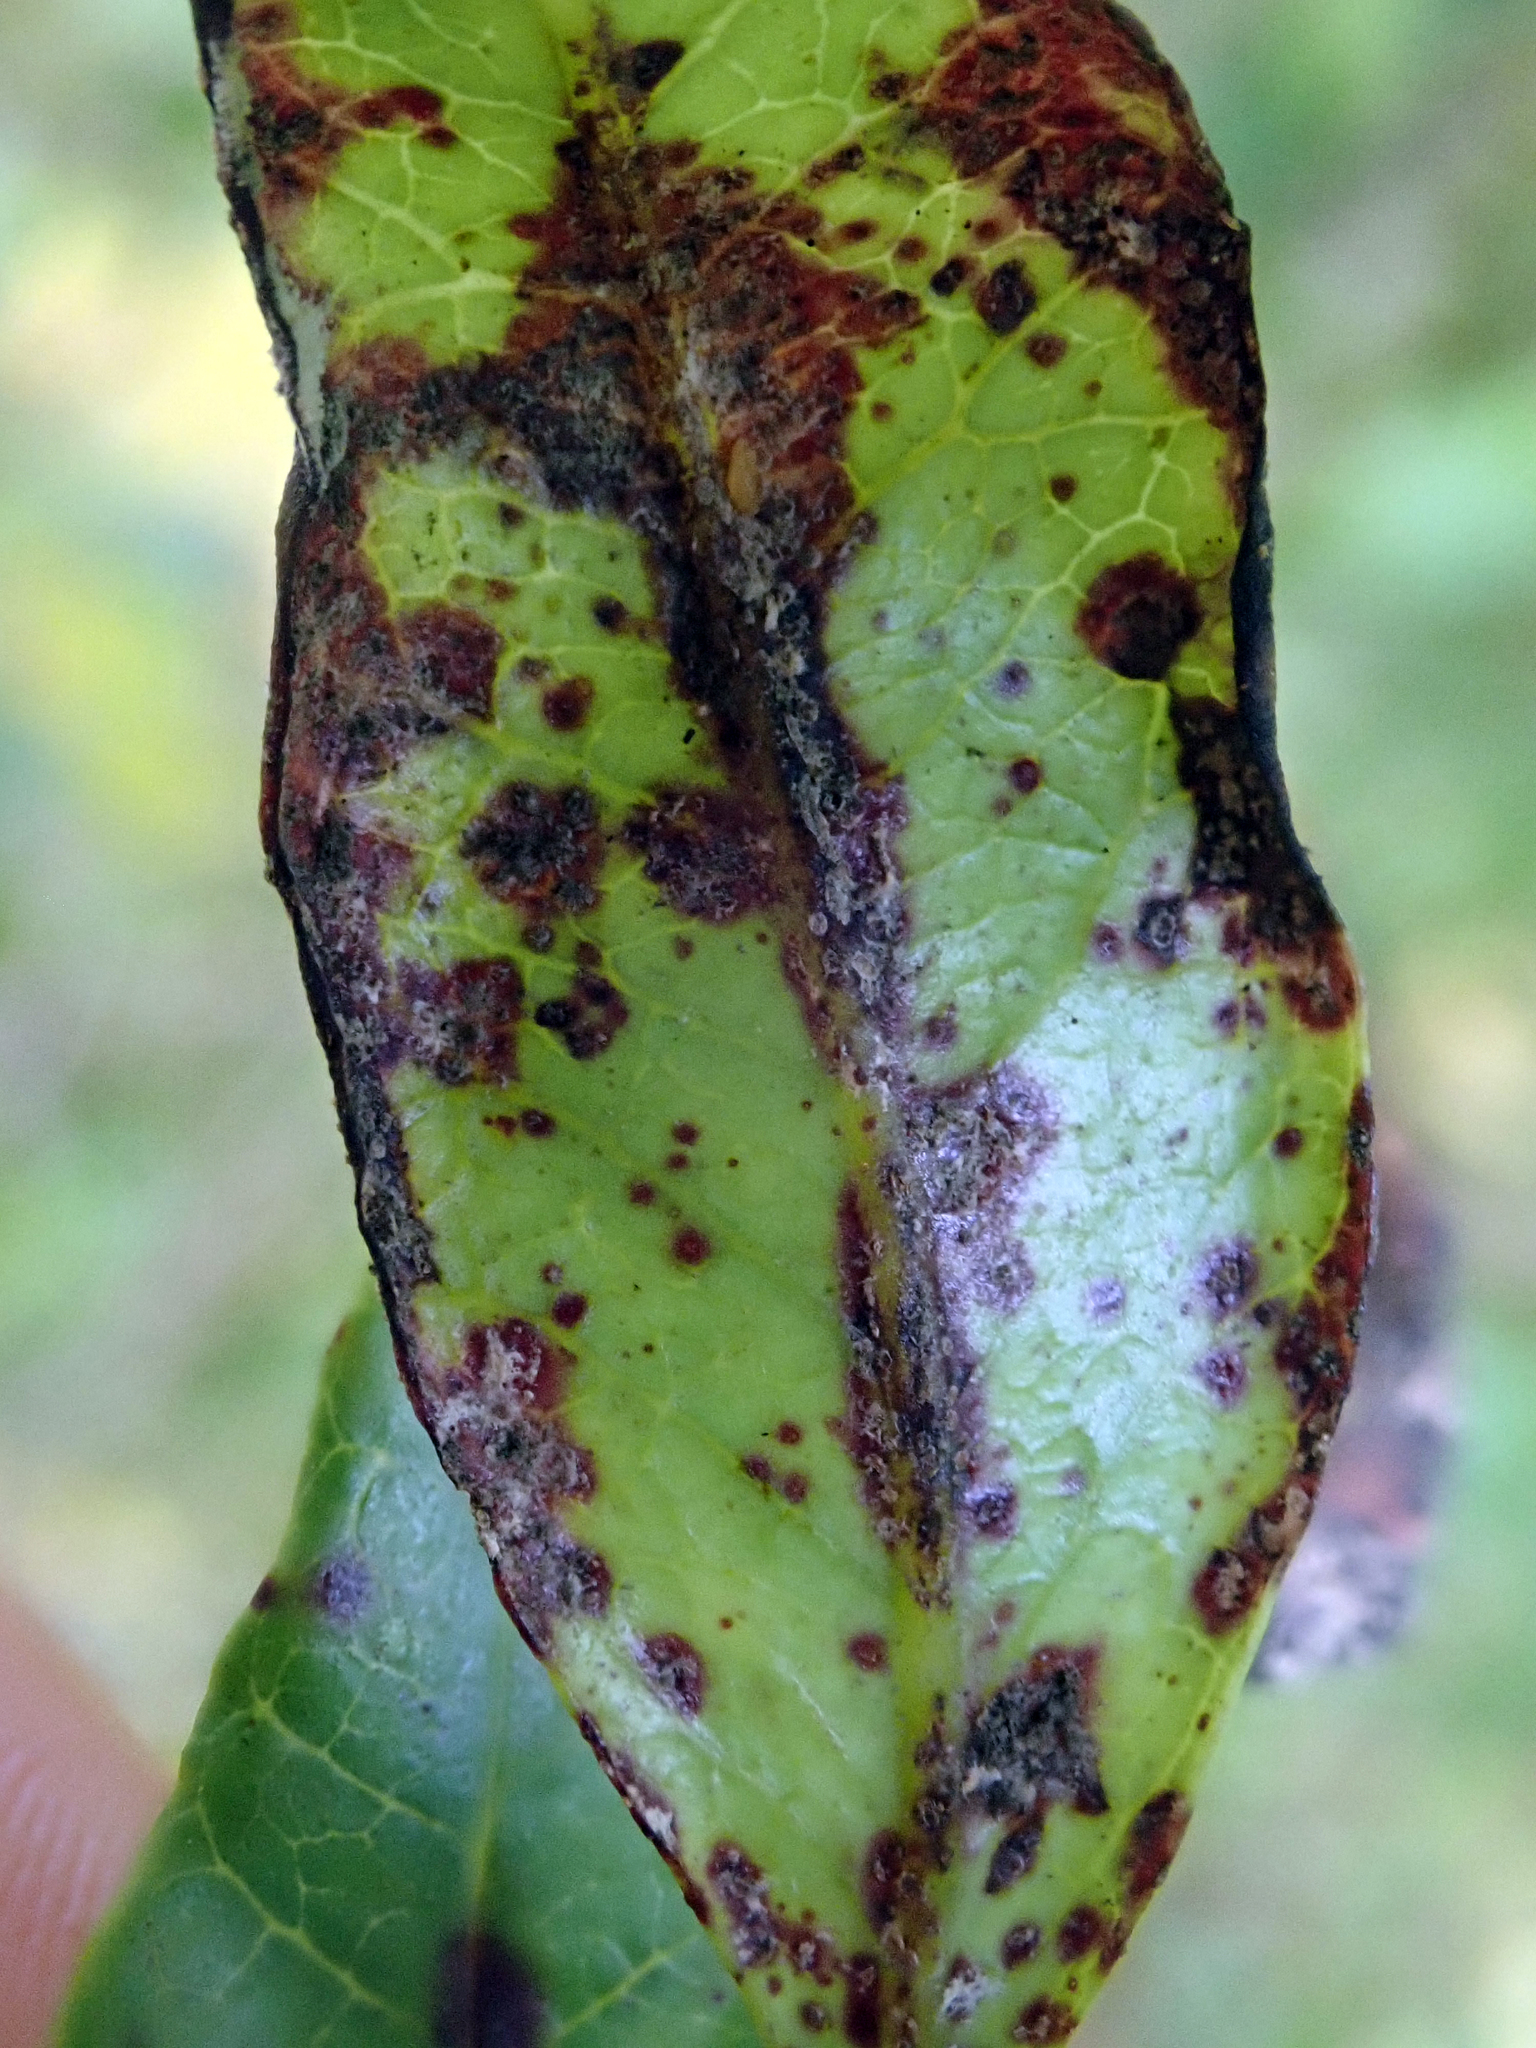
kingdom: Fungi
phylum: Basidiomycota
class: Pucciniomycetes
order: Pucciniales
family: Sphaerophragmiaceae
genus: Austropuccinia
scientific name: Austropuccinia psidii
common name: Myrtle rust
